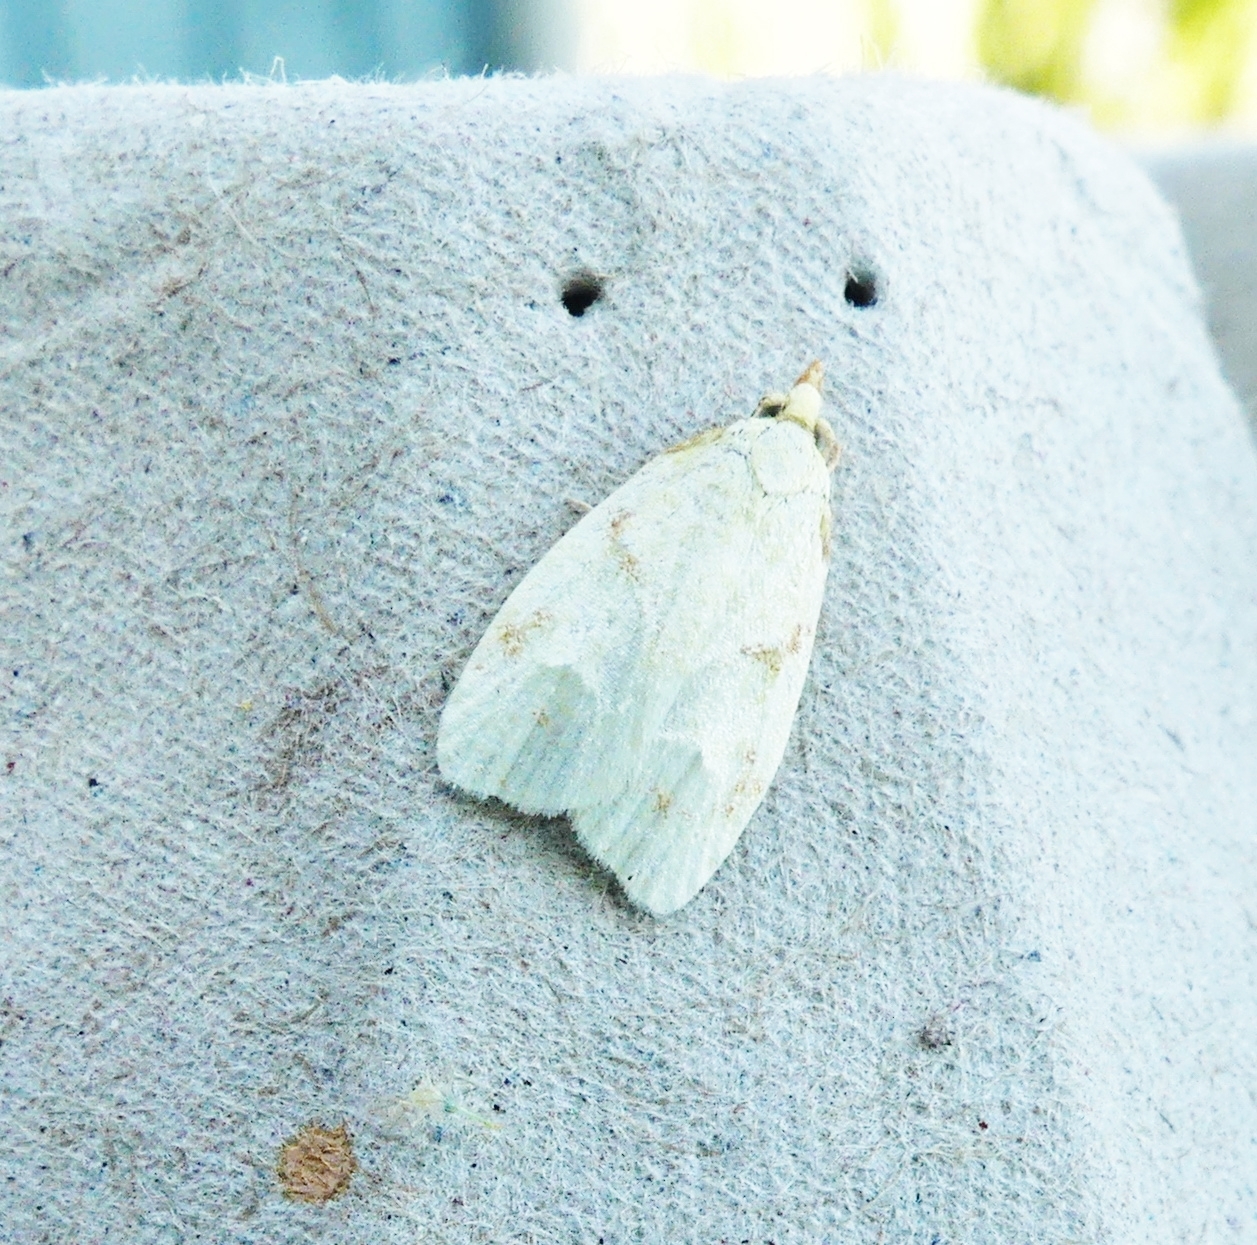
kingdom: Animalia
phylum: Arthropoda
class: Insecta
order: Lepidoptera
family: Tortricidae
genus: Cenopis
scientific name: Cenopis pettitana
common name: Maple-basswood leafroller moth
